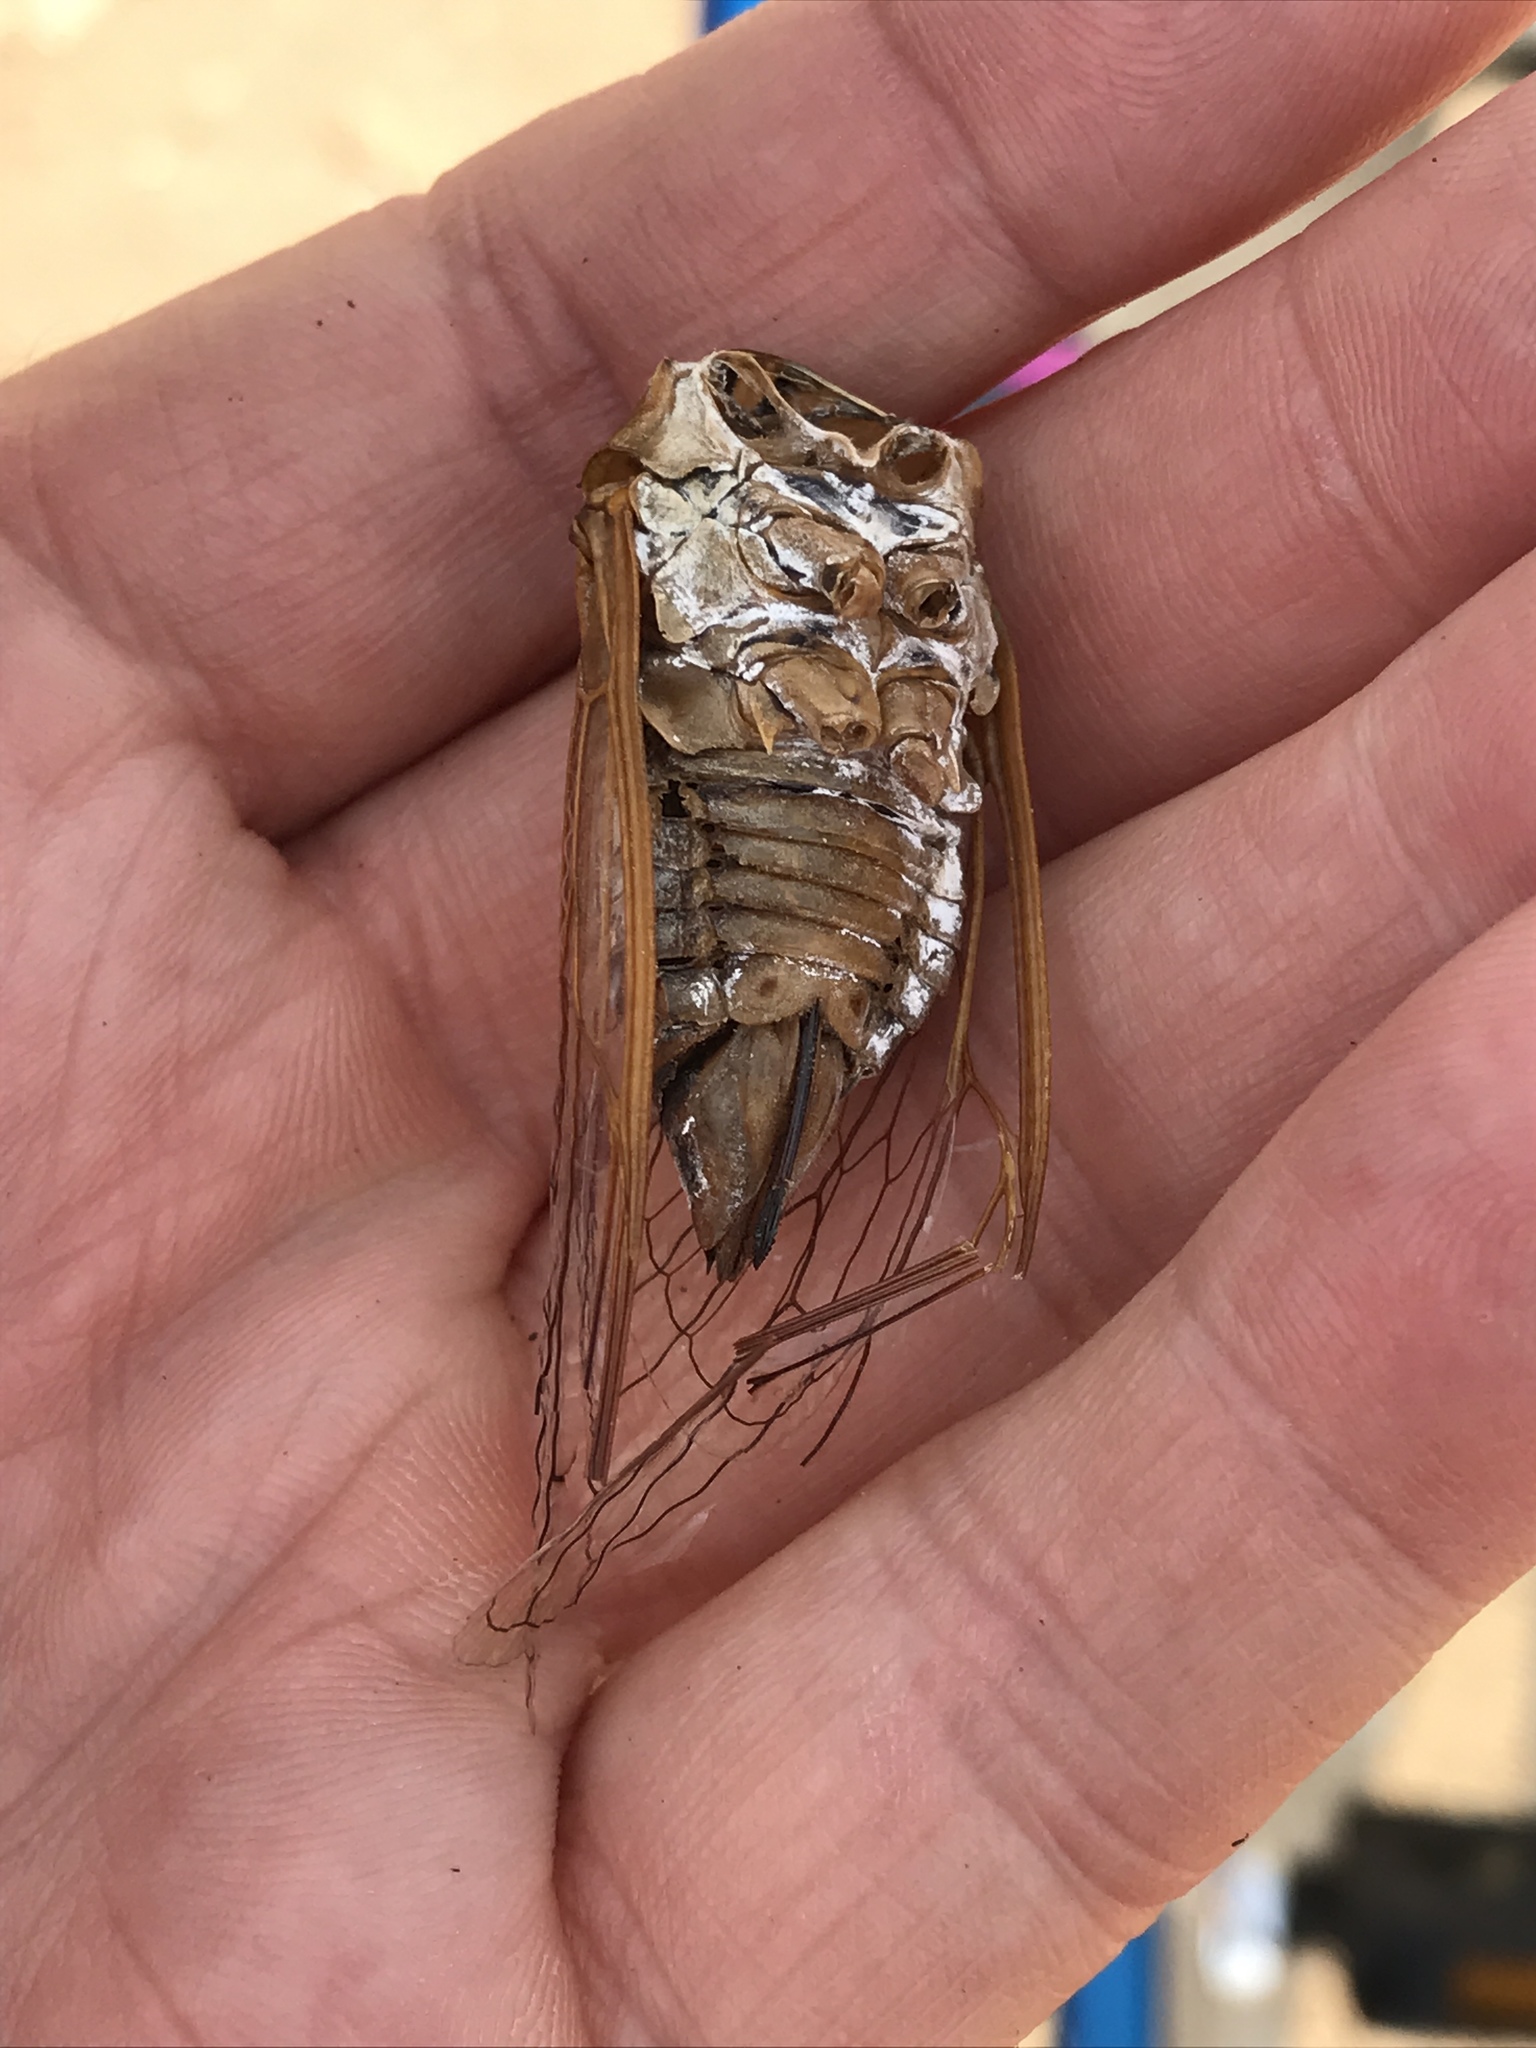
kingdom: Animalia
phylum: Arthropoda
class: Insecta
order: Hemiptera
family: Cicadidae
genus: Megatibicen
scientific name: Megatibicen dealbatus
